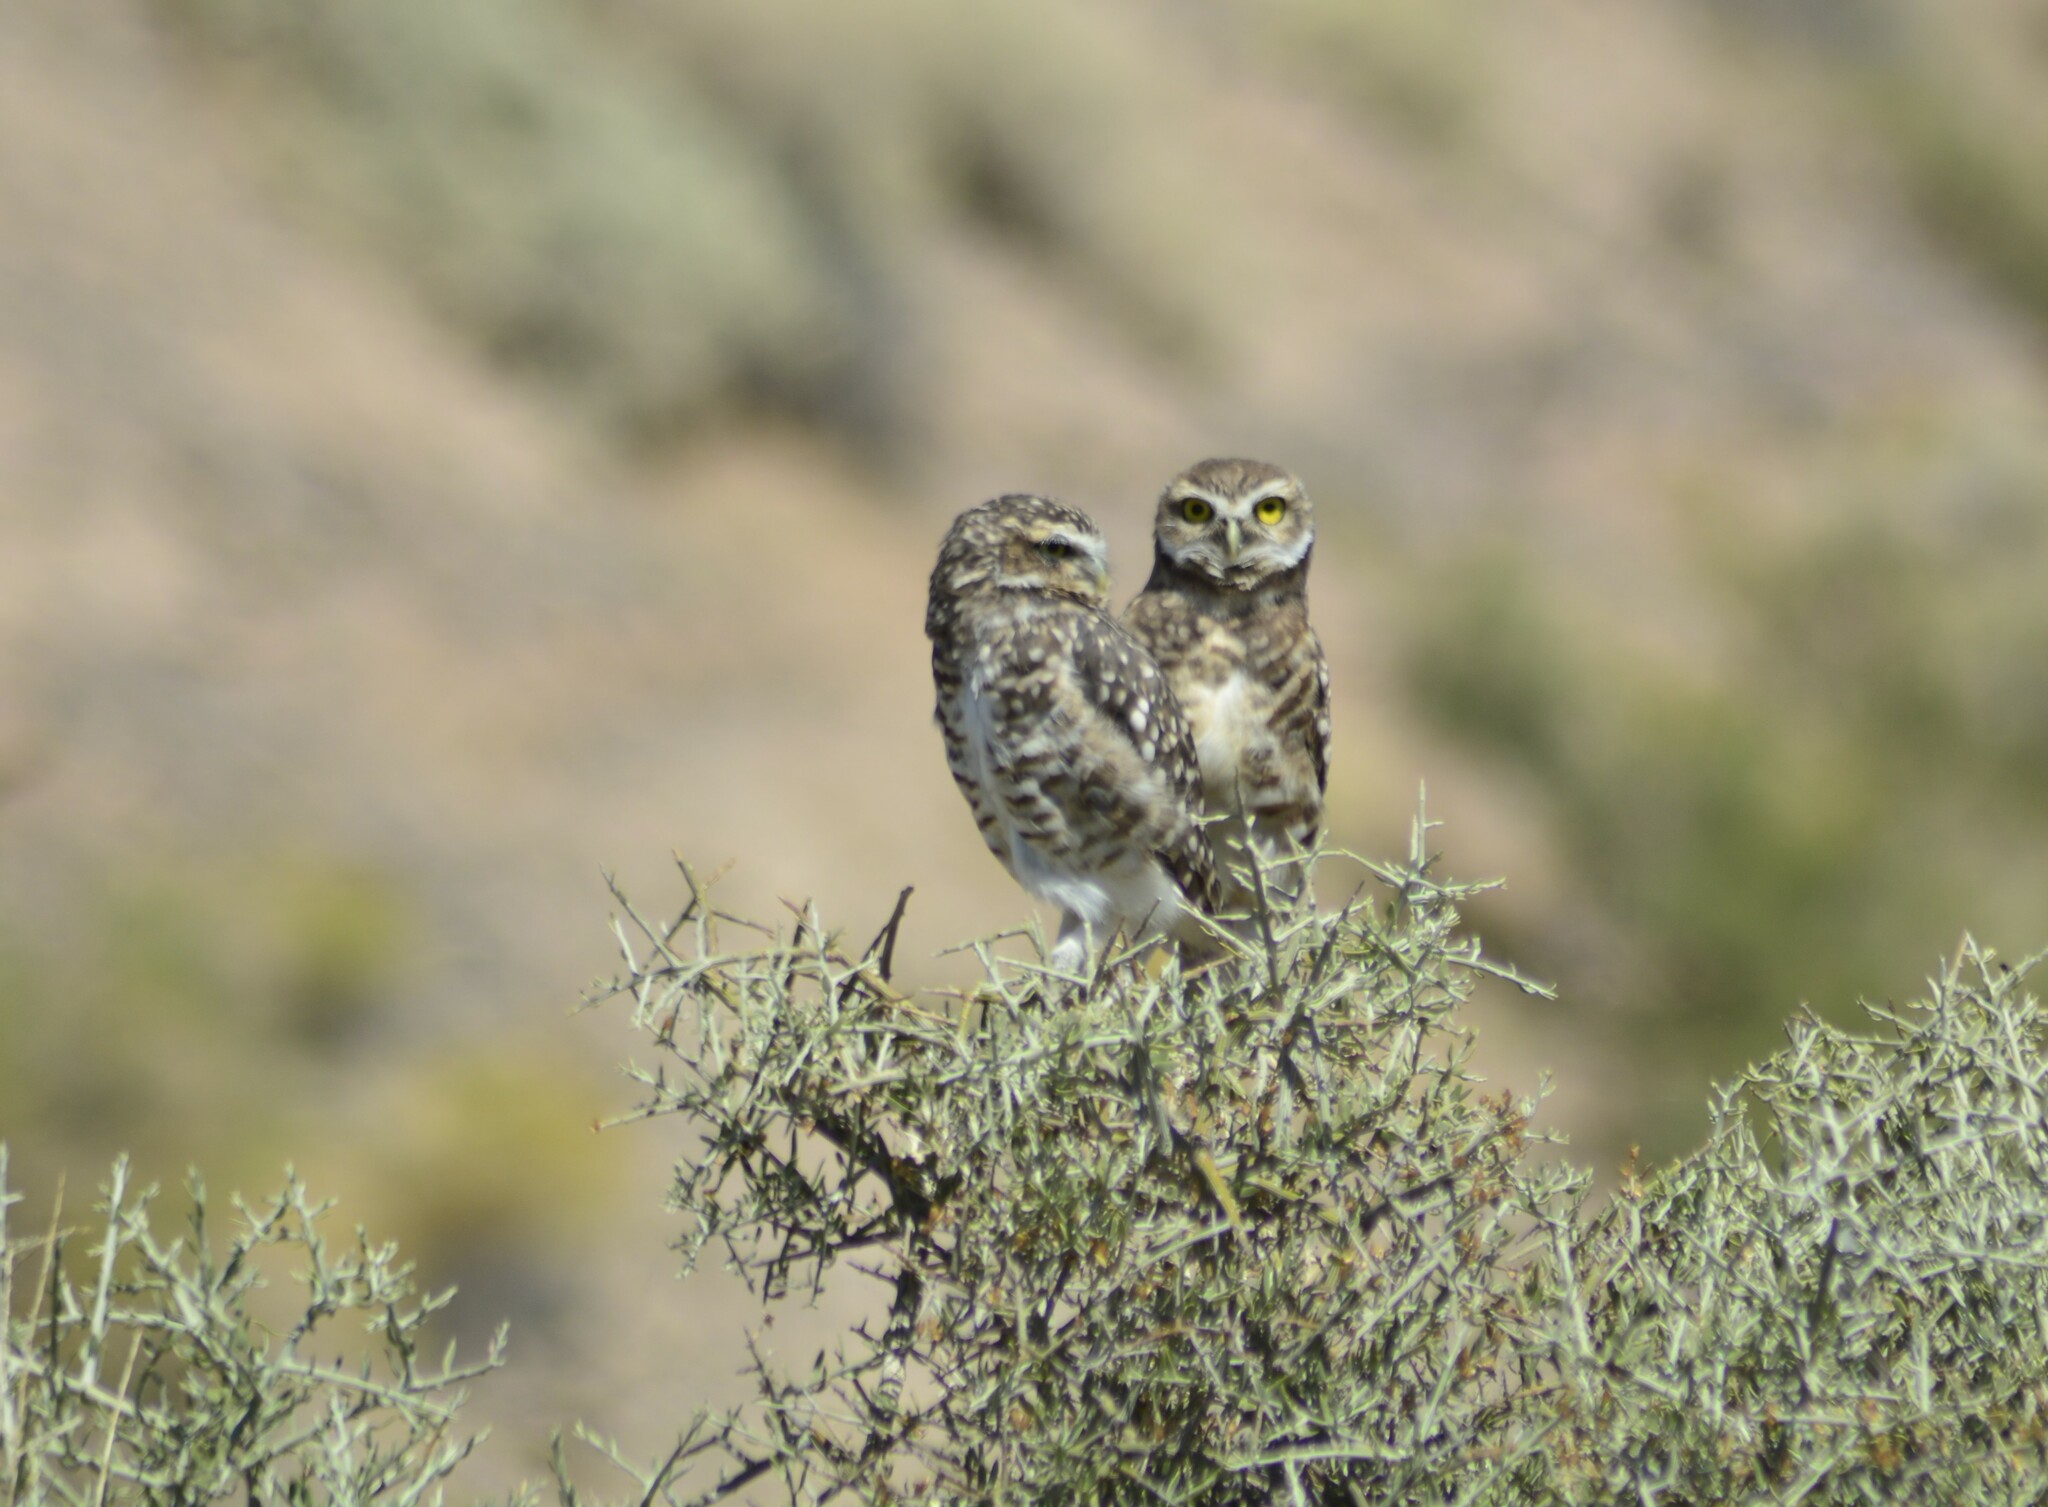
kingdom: Animalia
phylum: Chordata
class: Aves
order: Strigiformes
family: Strigidae
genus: Athene
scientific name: Athene cunicularia
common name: Burrowing owl
